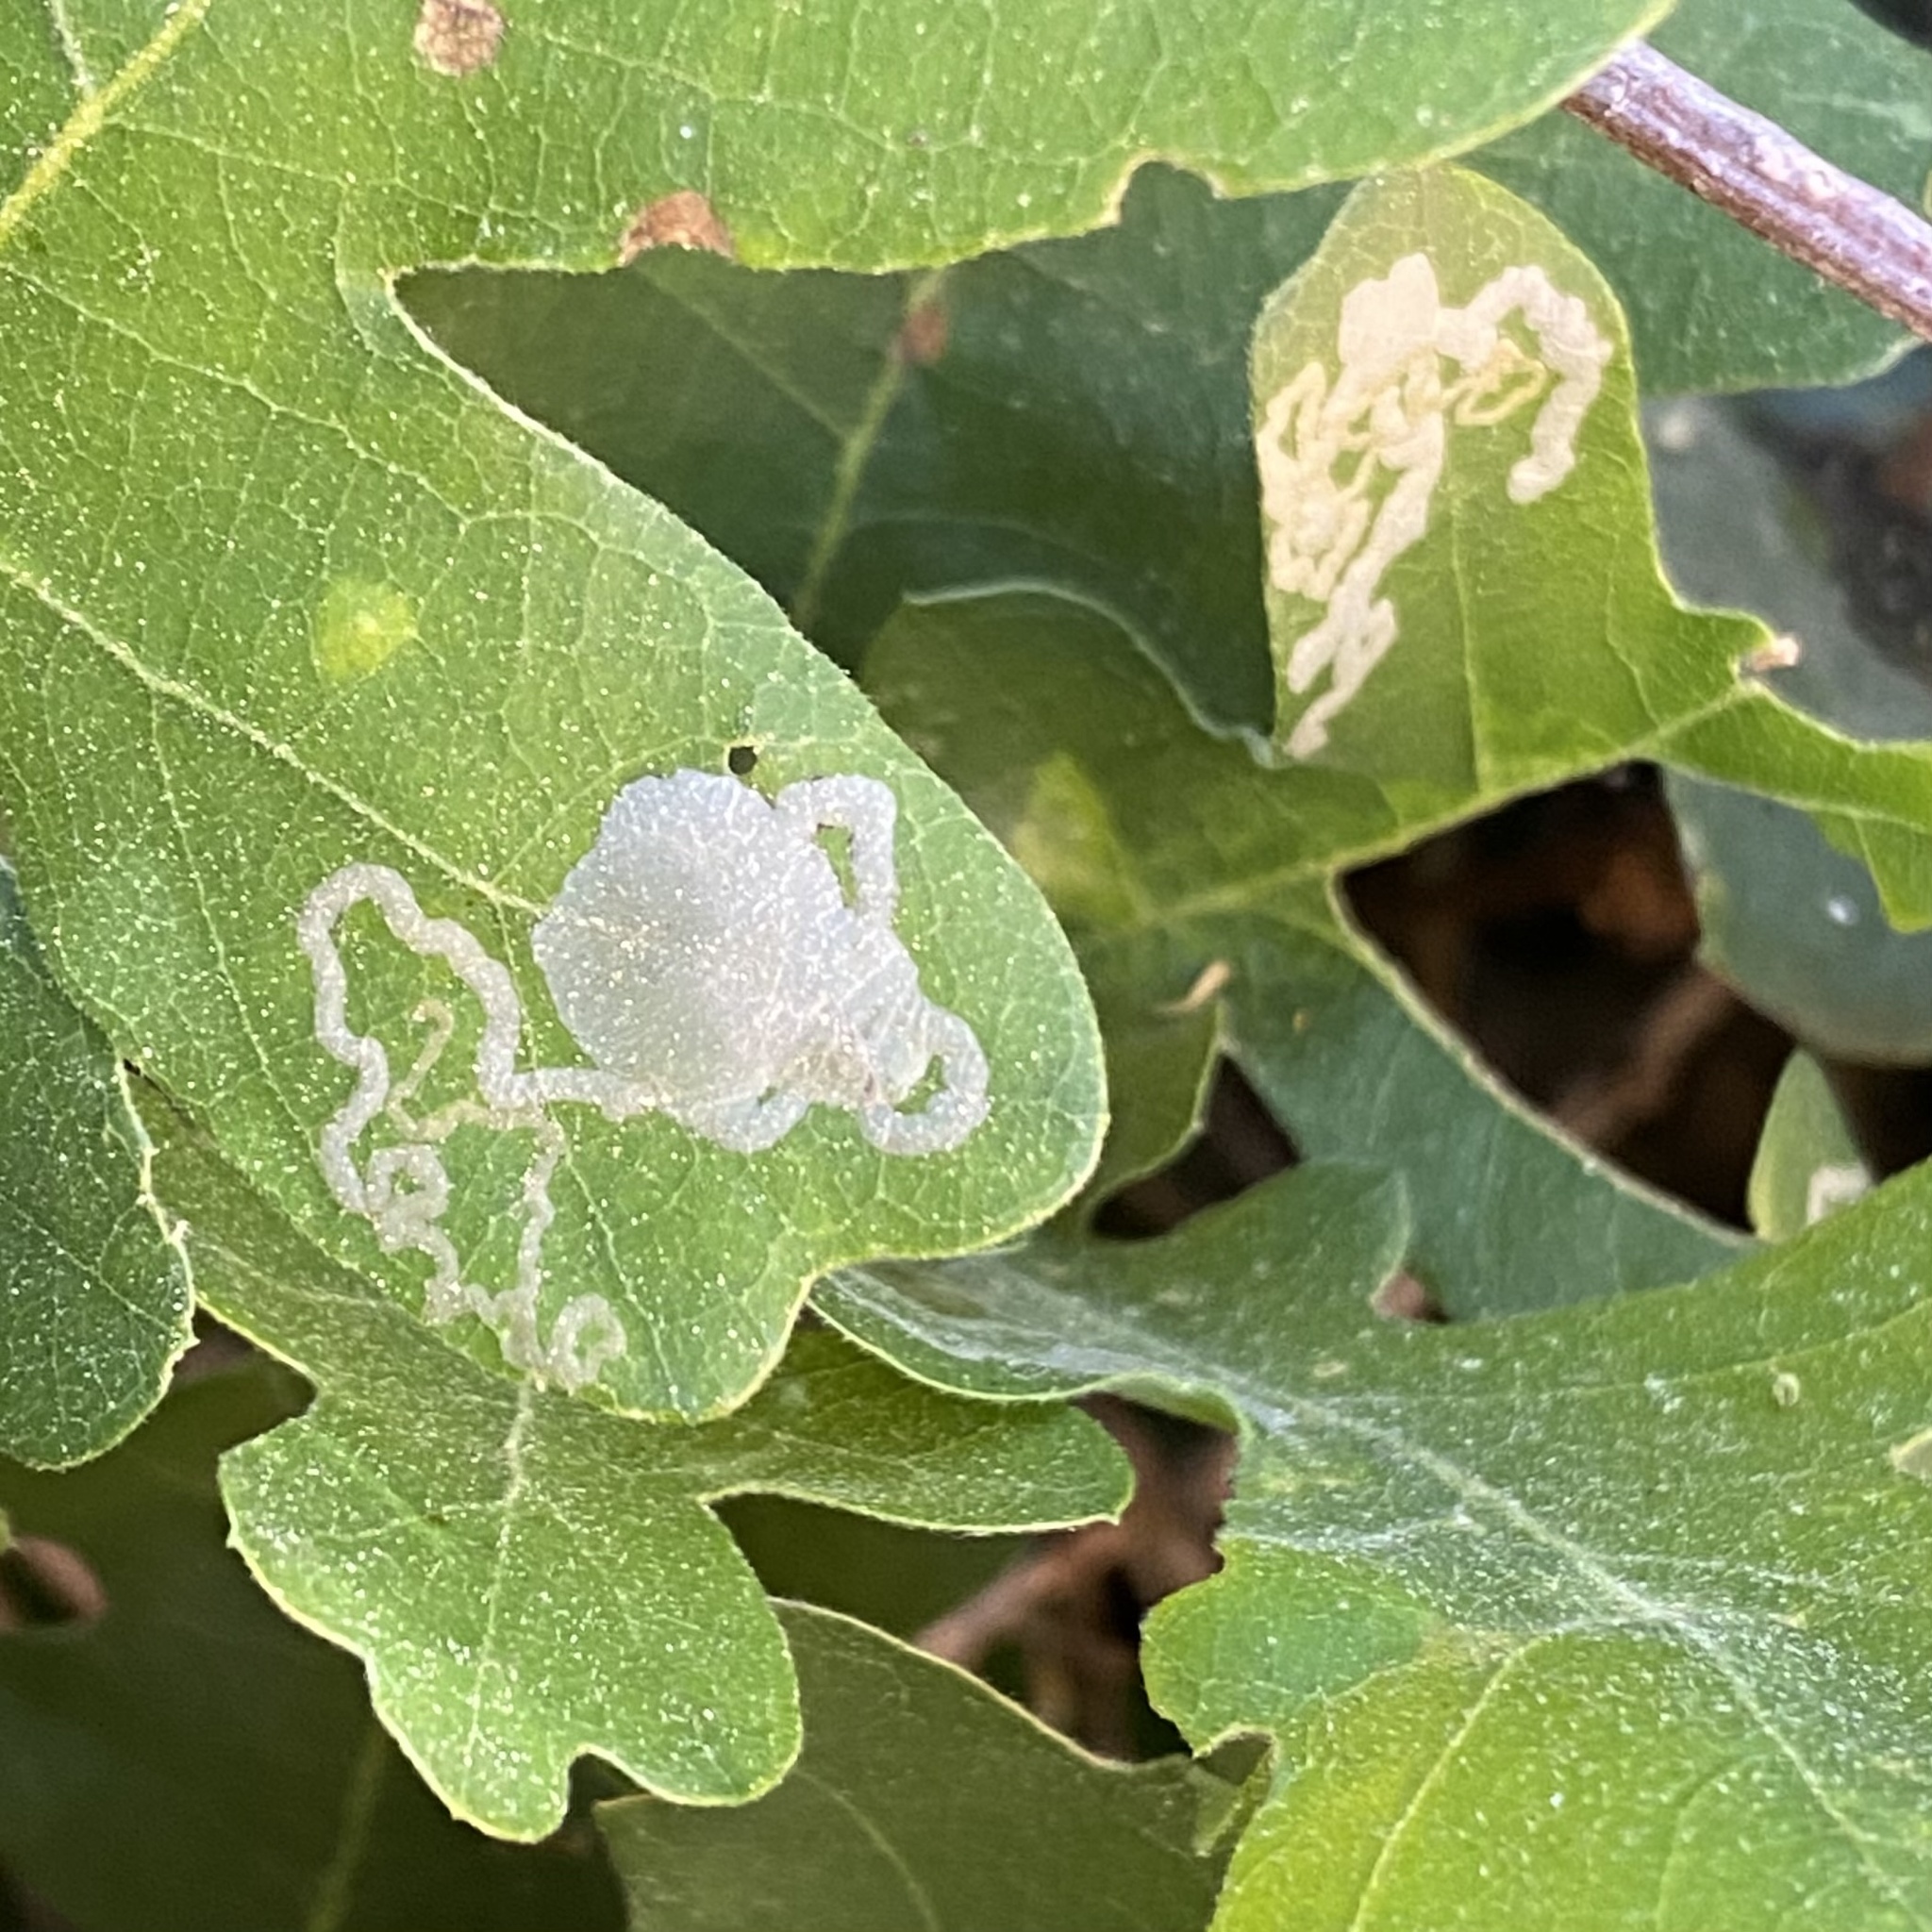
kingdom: Animalia
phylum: Arthropoda
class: Insecta
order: Lepidoptera
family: Gracillariidae
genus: Cryptolectica
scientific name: Cryptolectica
